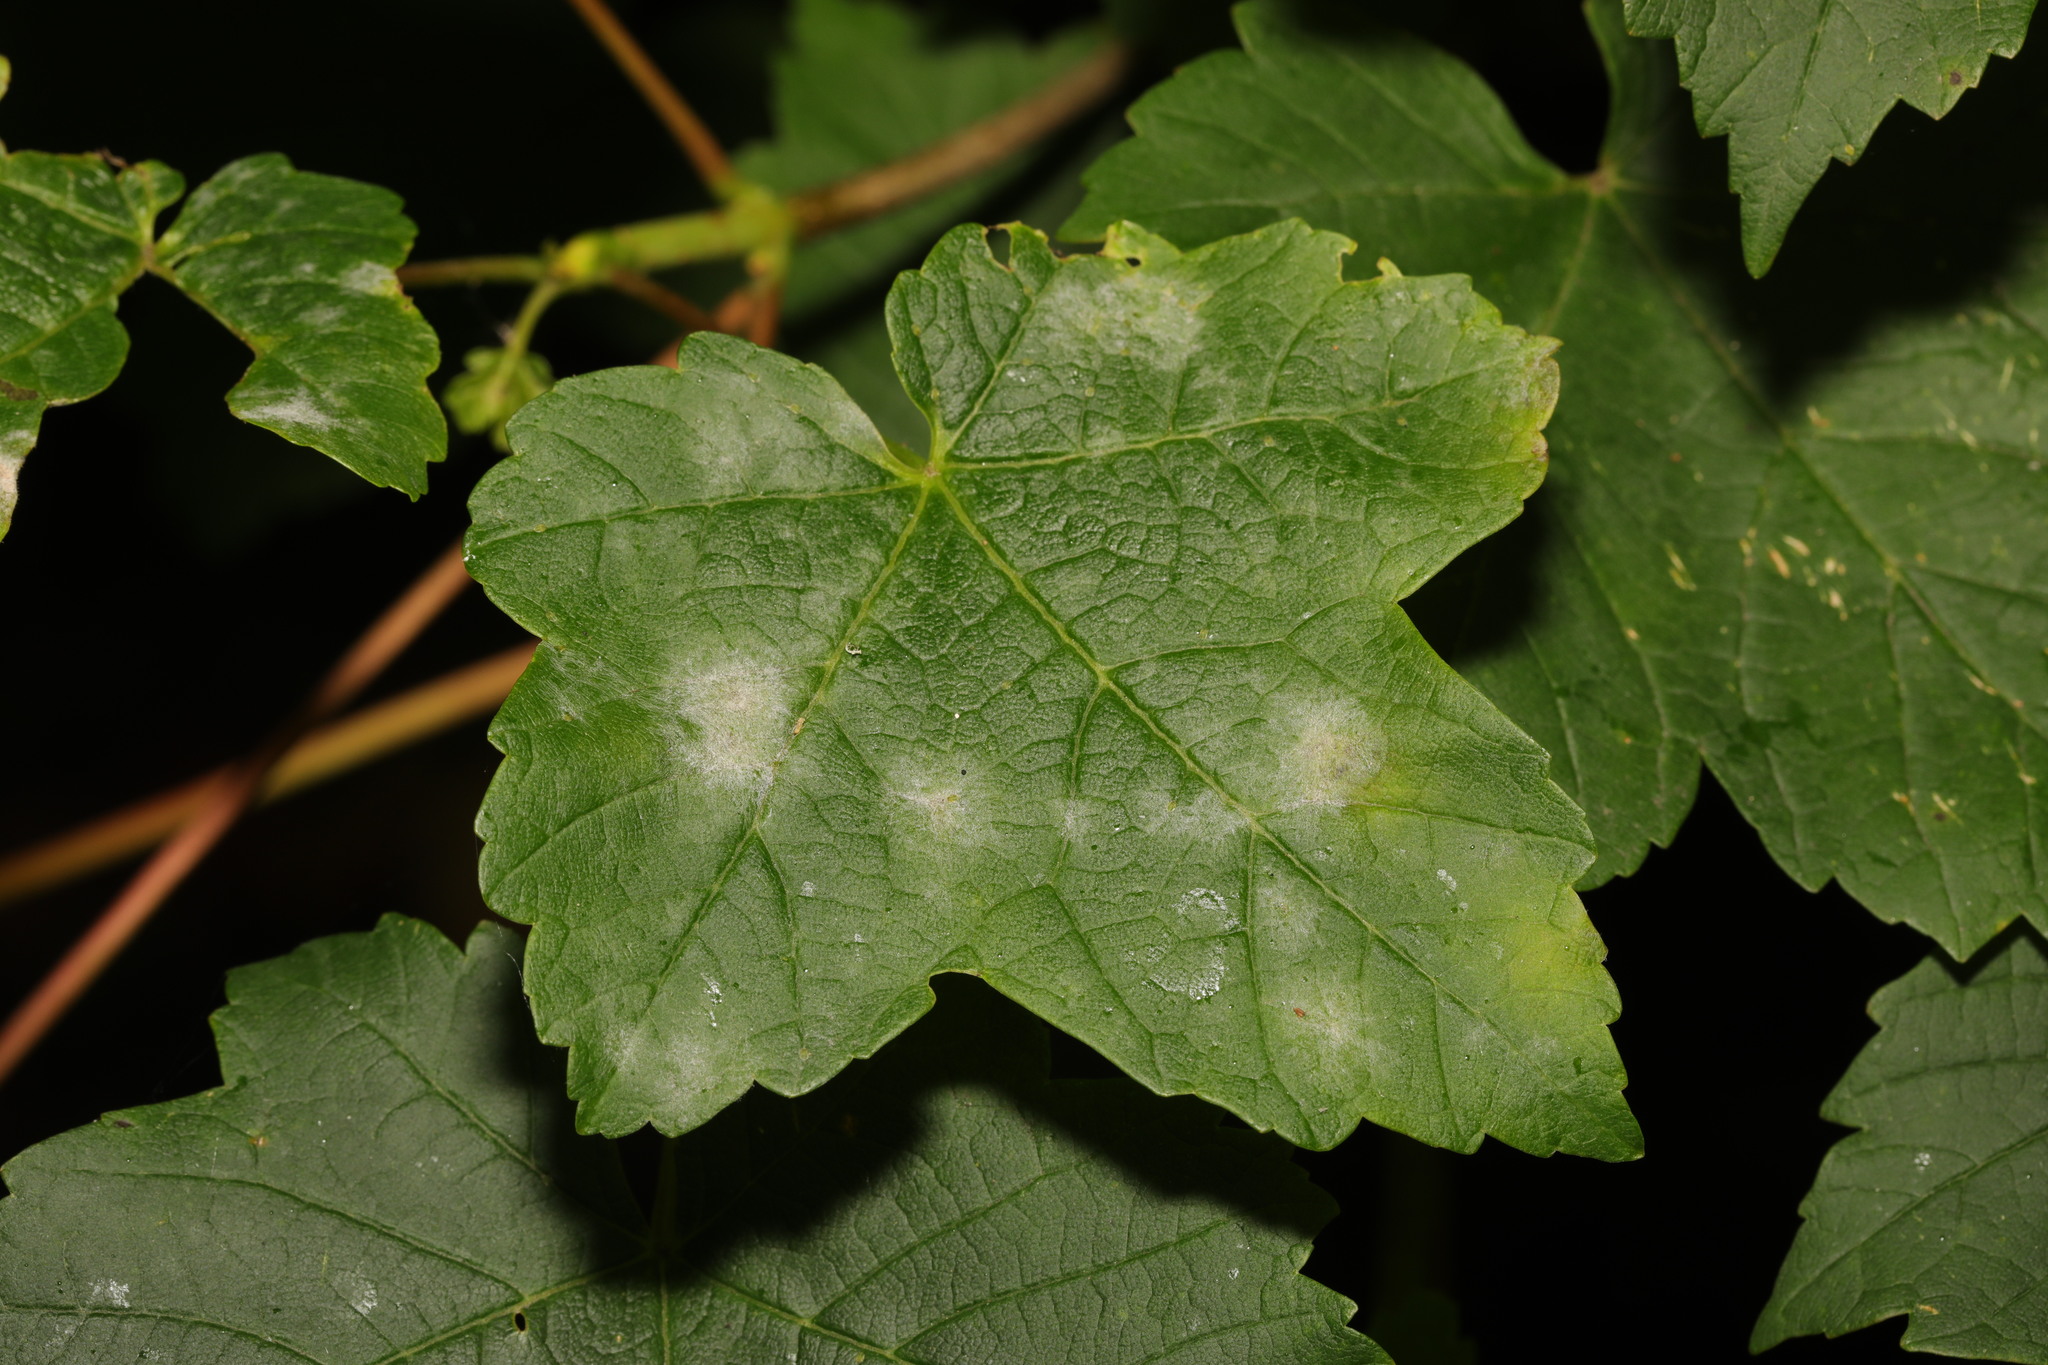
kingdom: Fungi
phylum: Ascomycota
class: Leotiomycetes
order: Helotiales
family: Erysiphaceae
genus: Sawadaea
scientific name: Sawadaea bicornis
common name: Maple mildew
